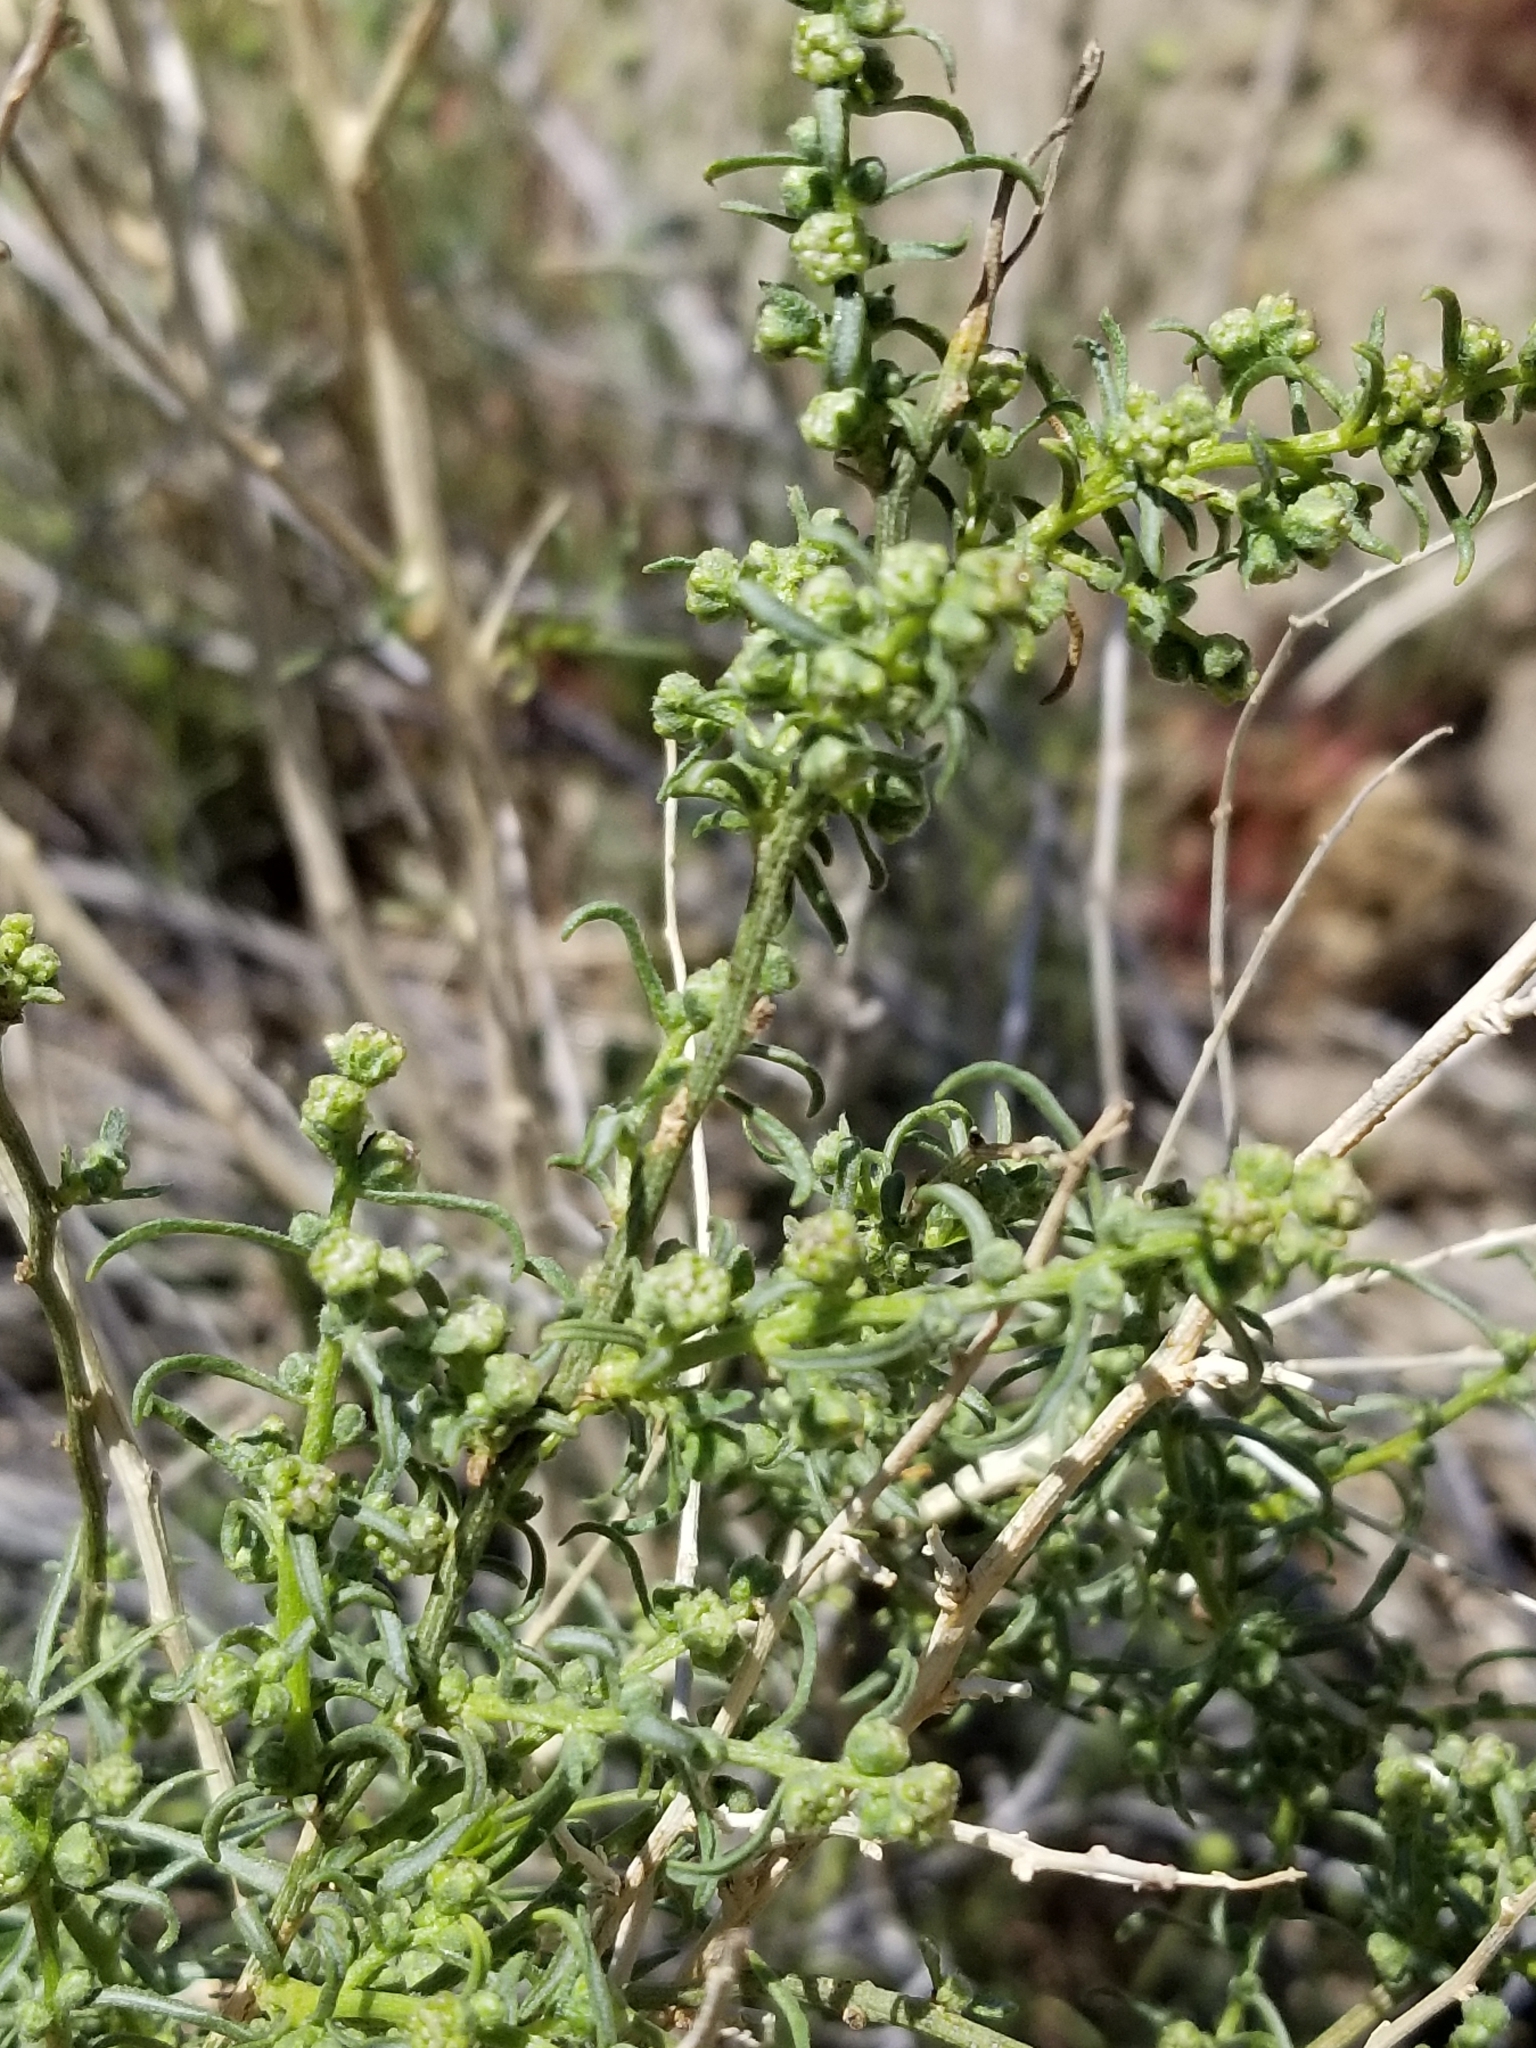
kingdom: Plantae
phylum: Tracheophyta
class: Magnoliopsida
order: Asterales
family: Asteraceae
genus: Ambrosia
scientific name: Ambrosia salsola
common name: Burrobrush
